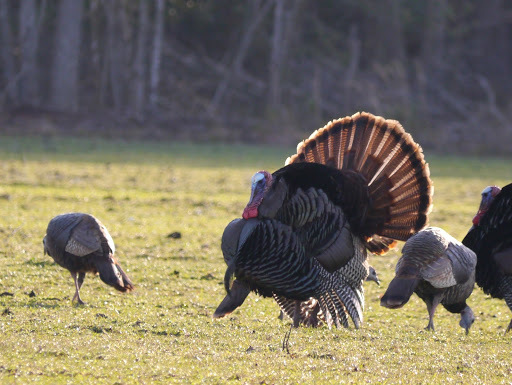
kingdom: Animalia
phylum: Chordata
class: Aves
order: Galliformes
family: Phasianidae
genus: Meleagris
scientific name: Meleagris gallopavo
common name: Wild turkey
